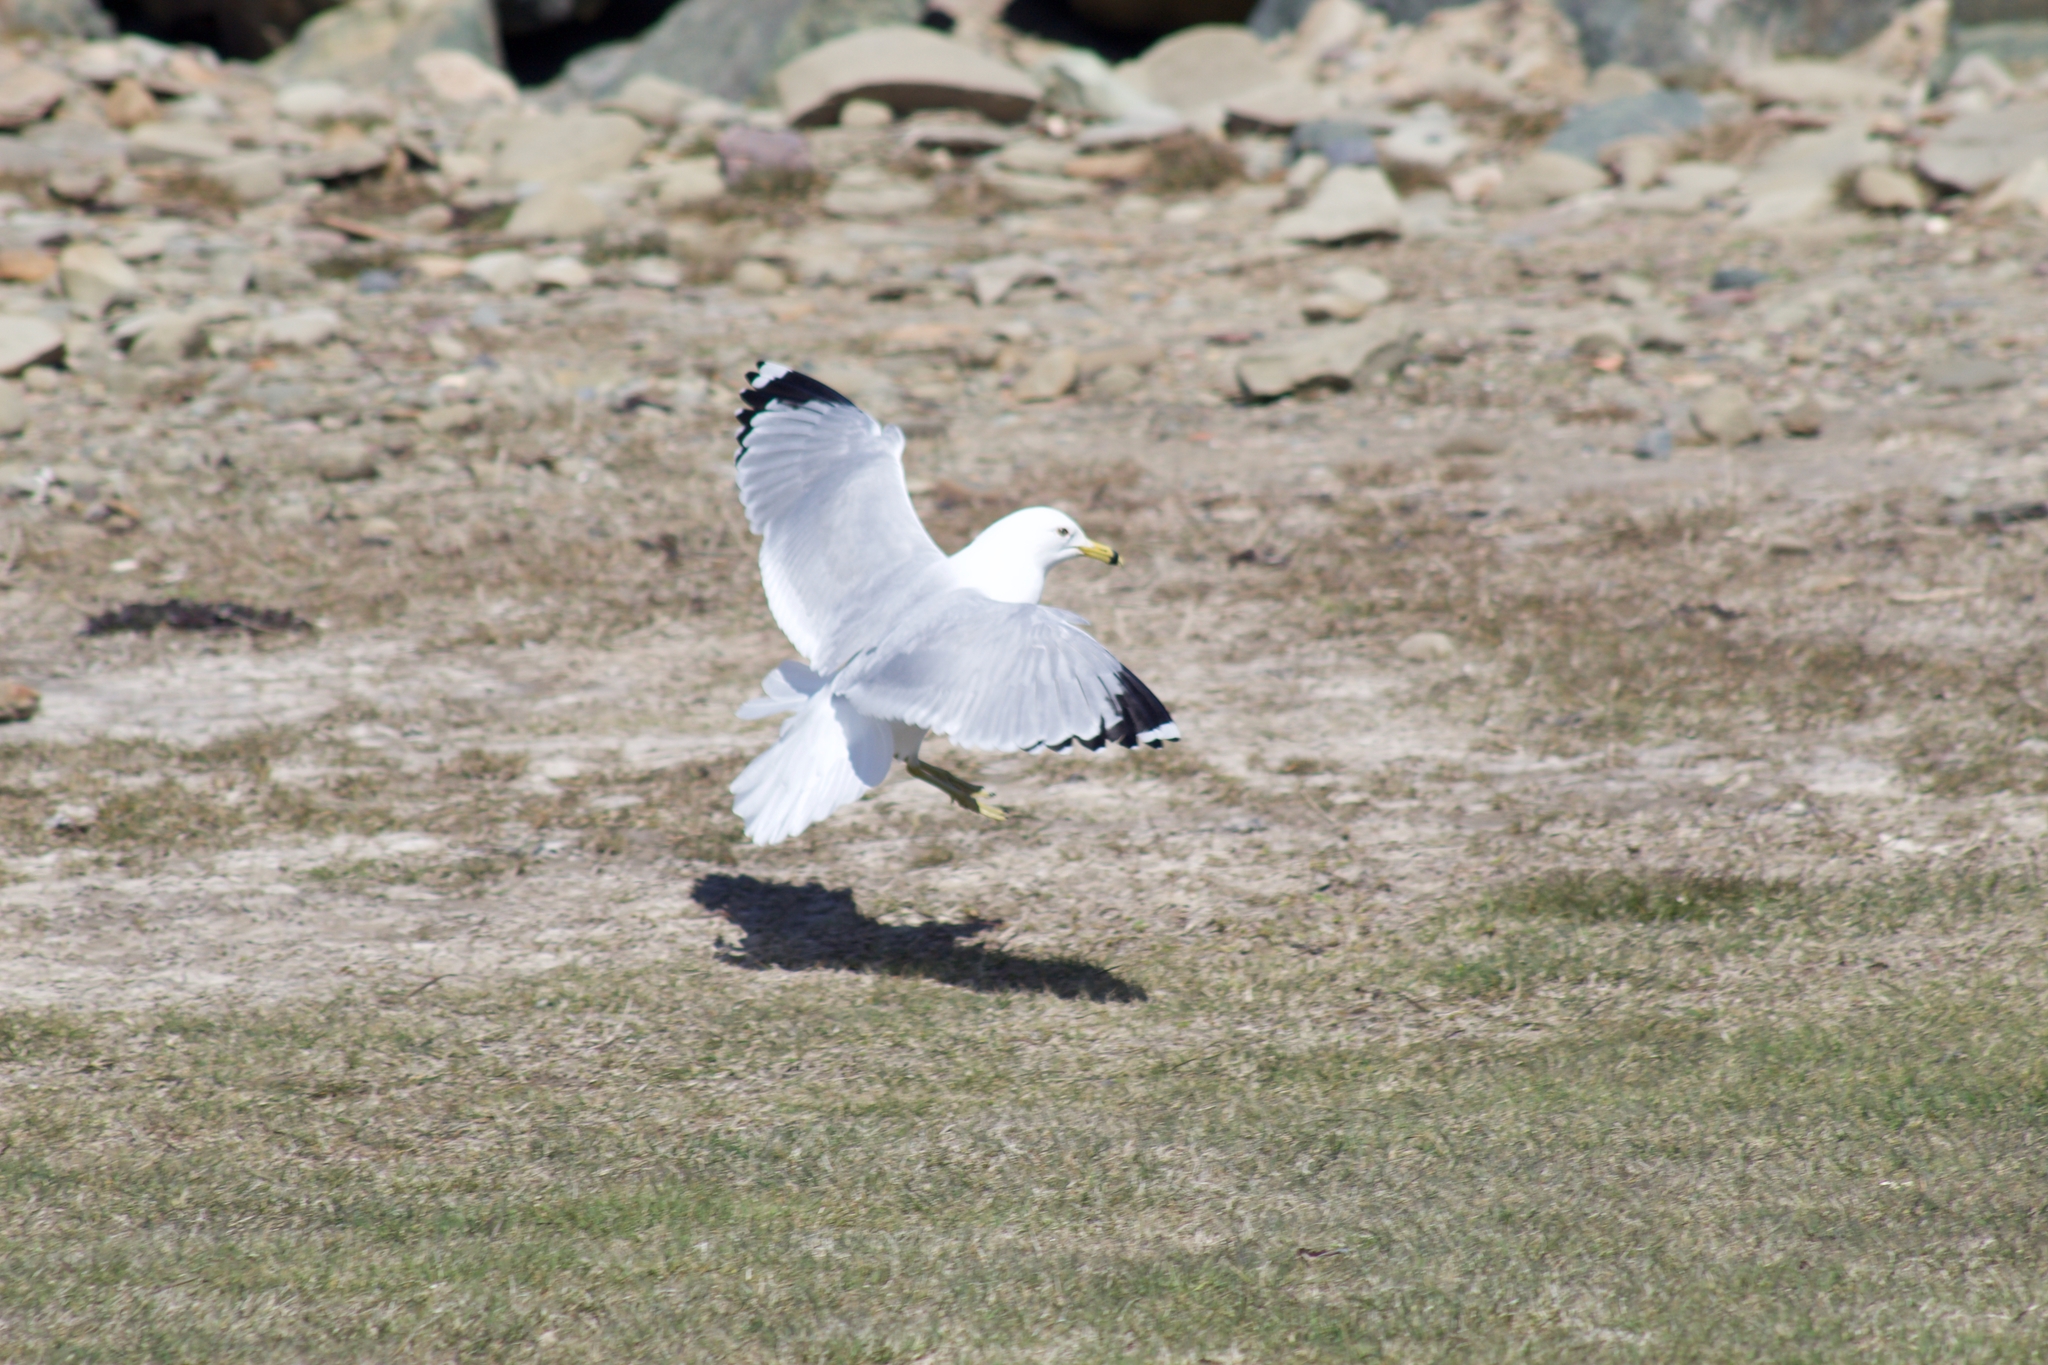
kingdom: Animalia
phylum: Chordata
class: Aves
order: Charadriiformes
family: Laridae
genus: Larus
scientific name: Larus delawarensis
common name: Ring-billed gull
